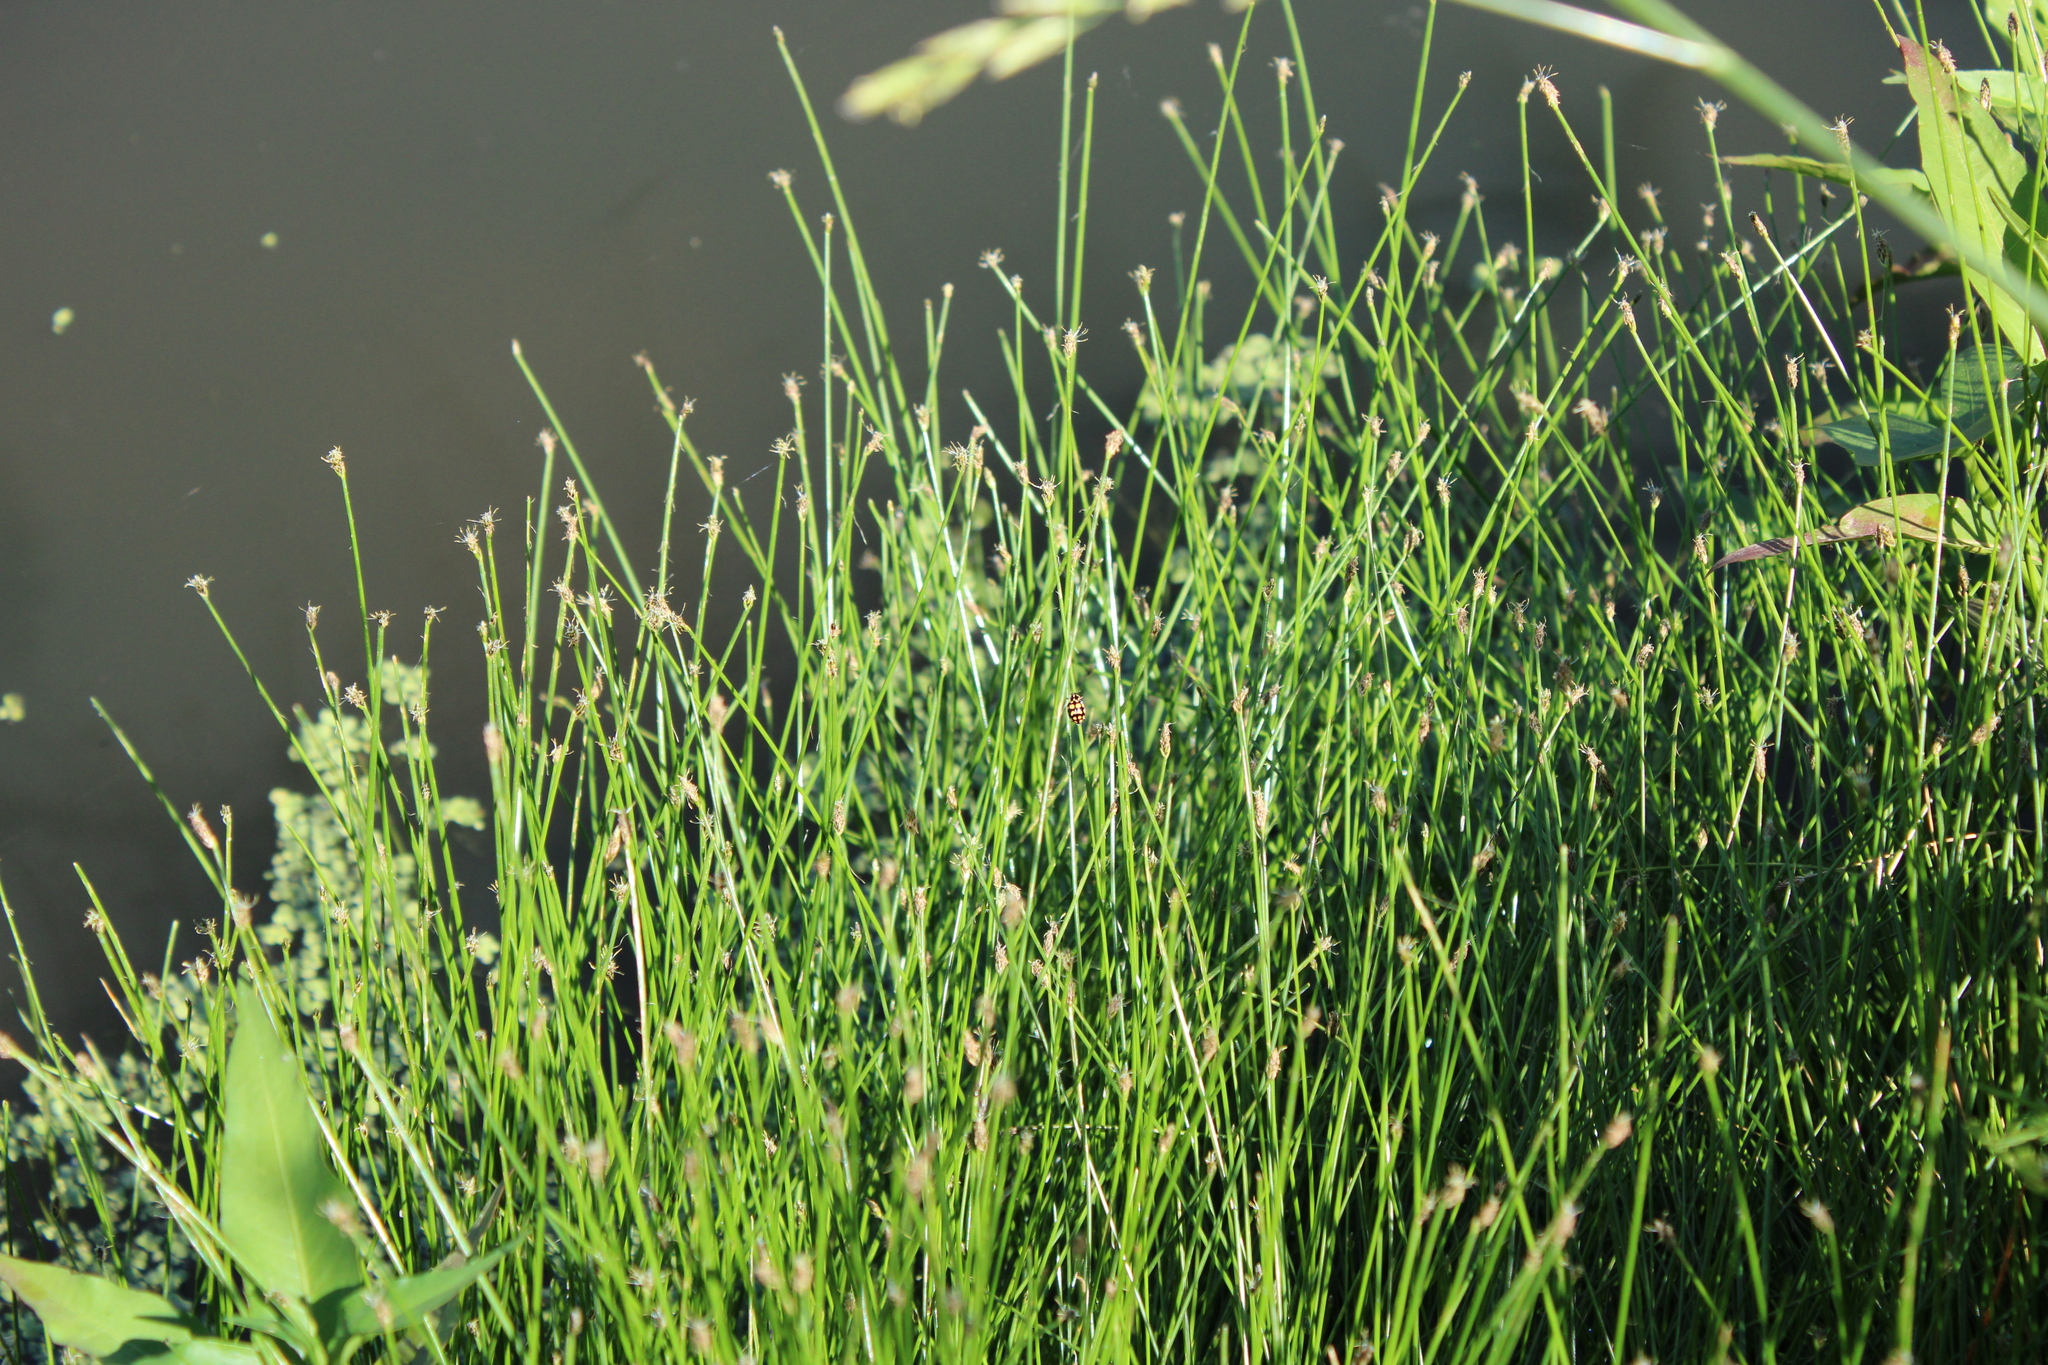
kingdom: Animalia
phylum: Arthropoda
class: Insecta
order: Coleoptera
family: Coccinellidae
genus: Coleomegilla
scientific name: Coleomegilla
